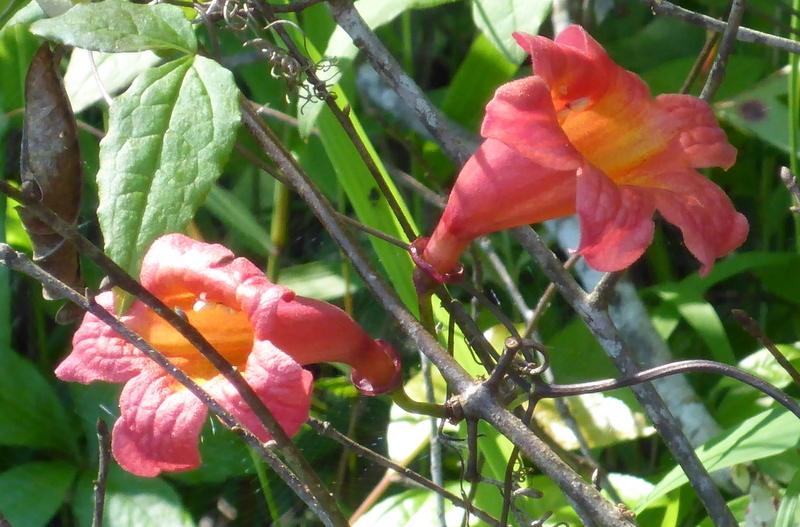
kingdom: Plantae
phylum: Tracheophyta
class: Magnoliopsida
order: Lamiales
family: Bignoniaceae
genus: Bignonia
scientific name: Bignonia capreolata
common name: Crossvine
